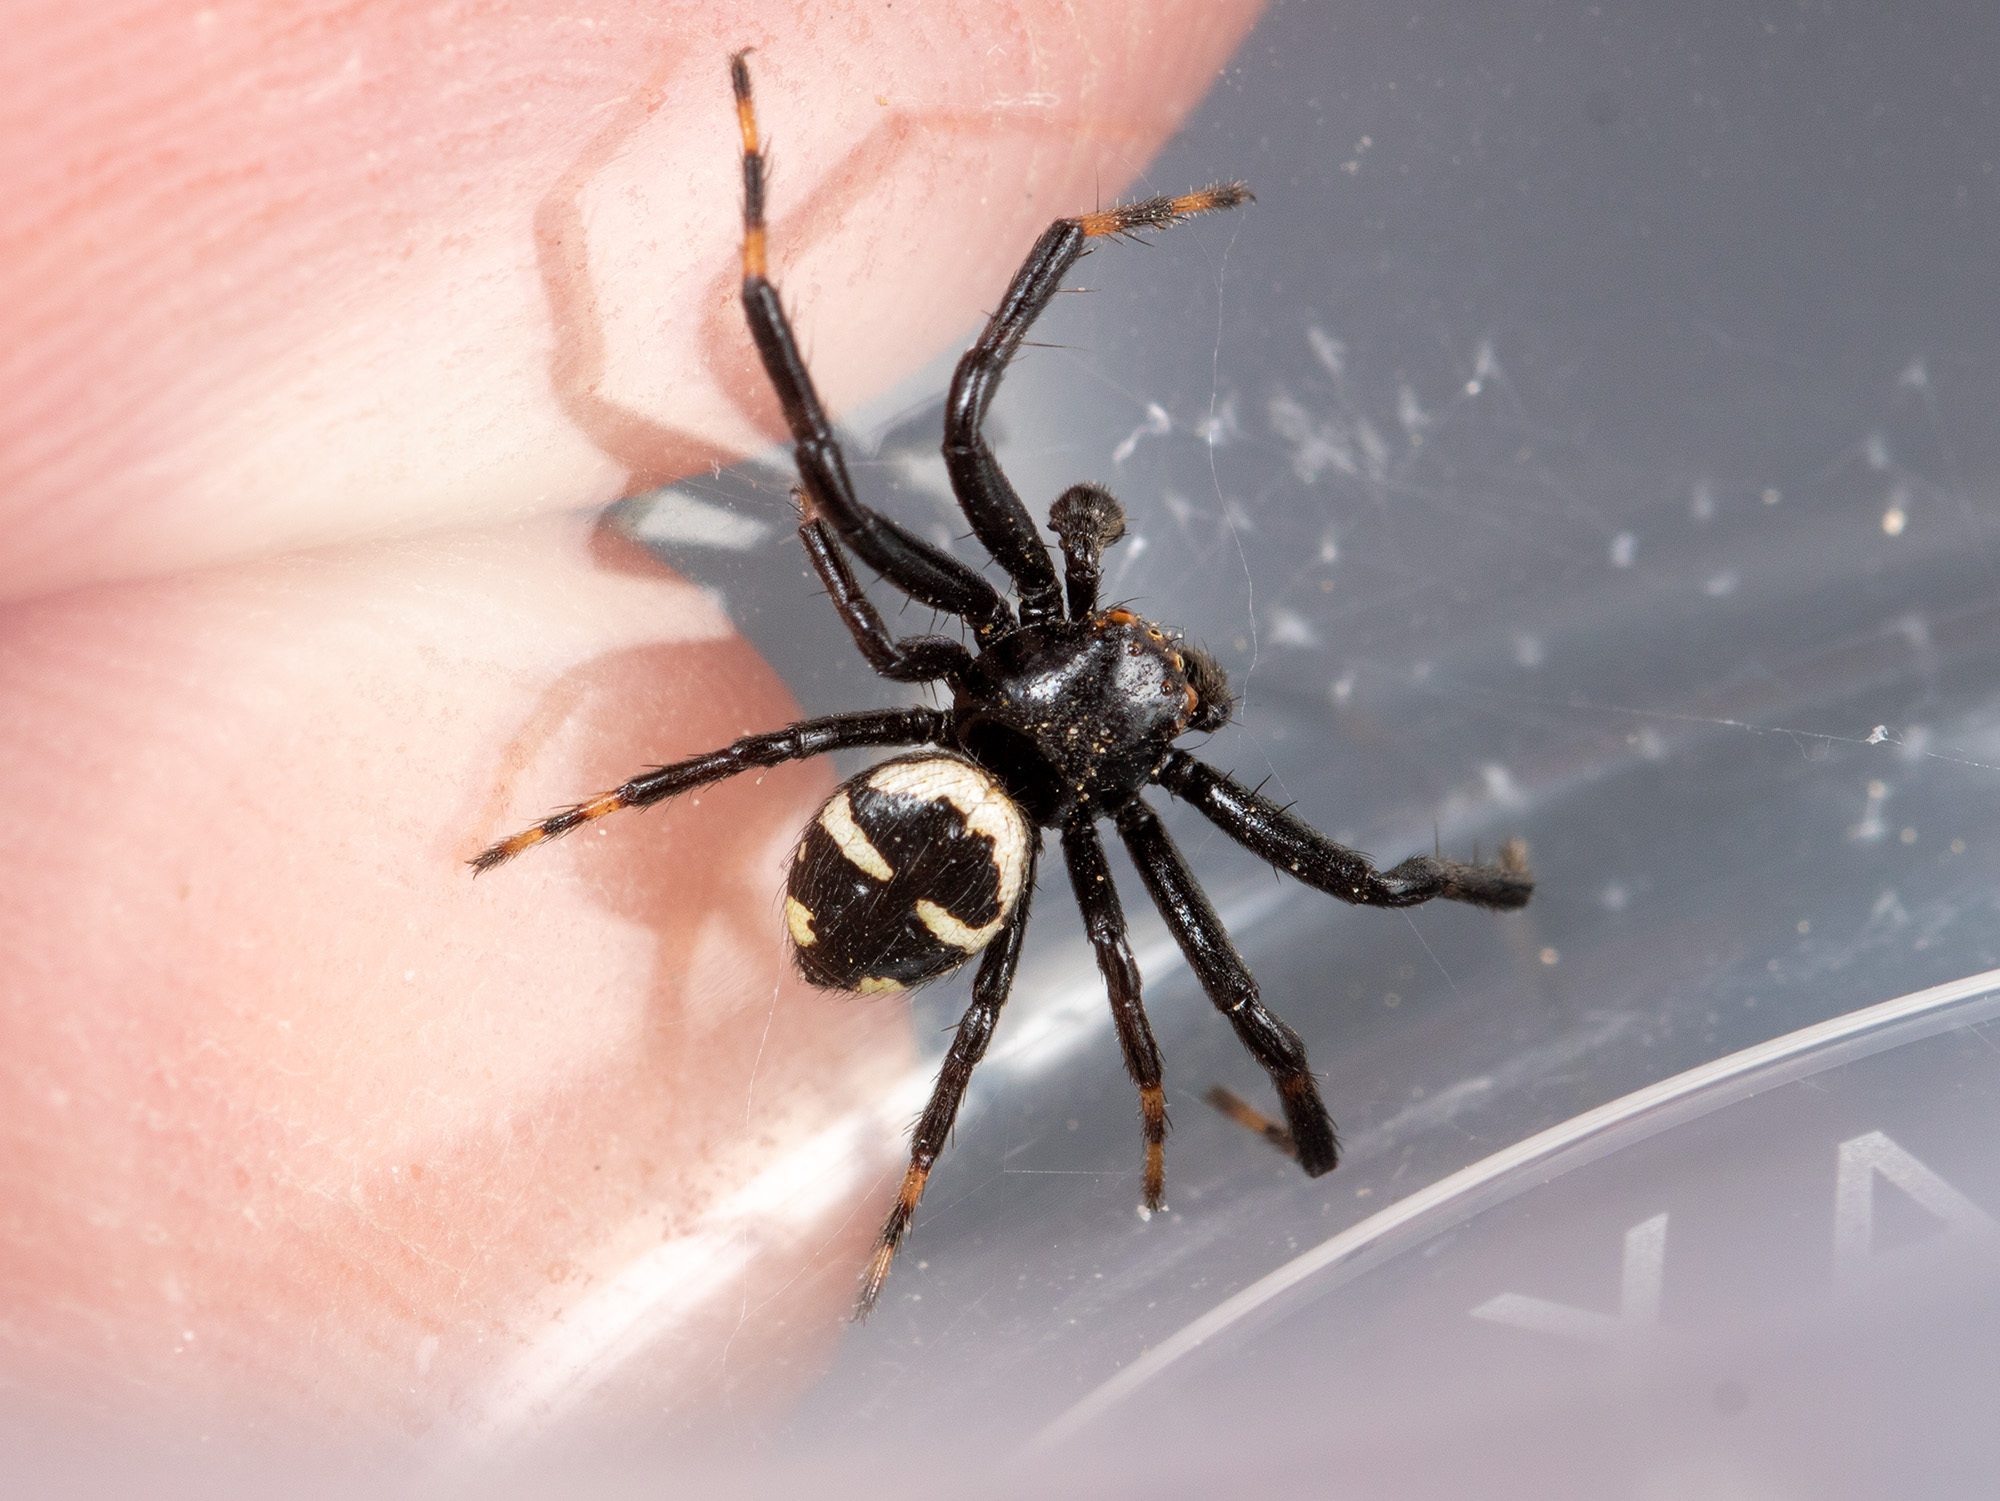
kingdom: Animalia
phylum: Arthropoda
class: Arachnida
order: Araneae
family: Thomisidae
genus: Synema
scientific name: Synema utotchkini
